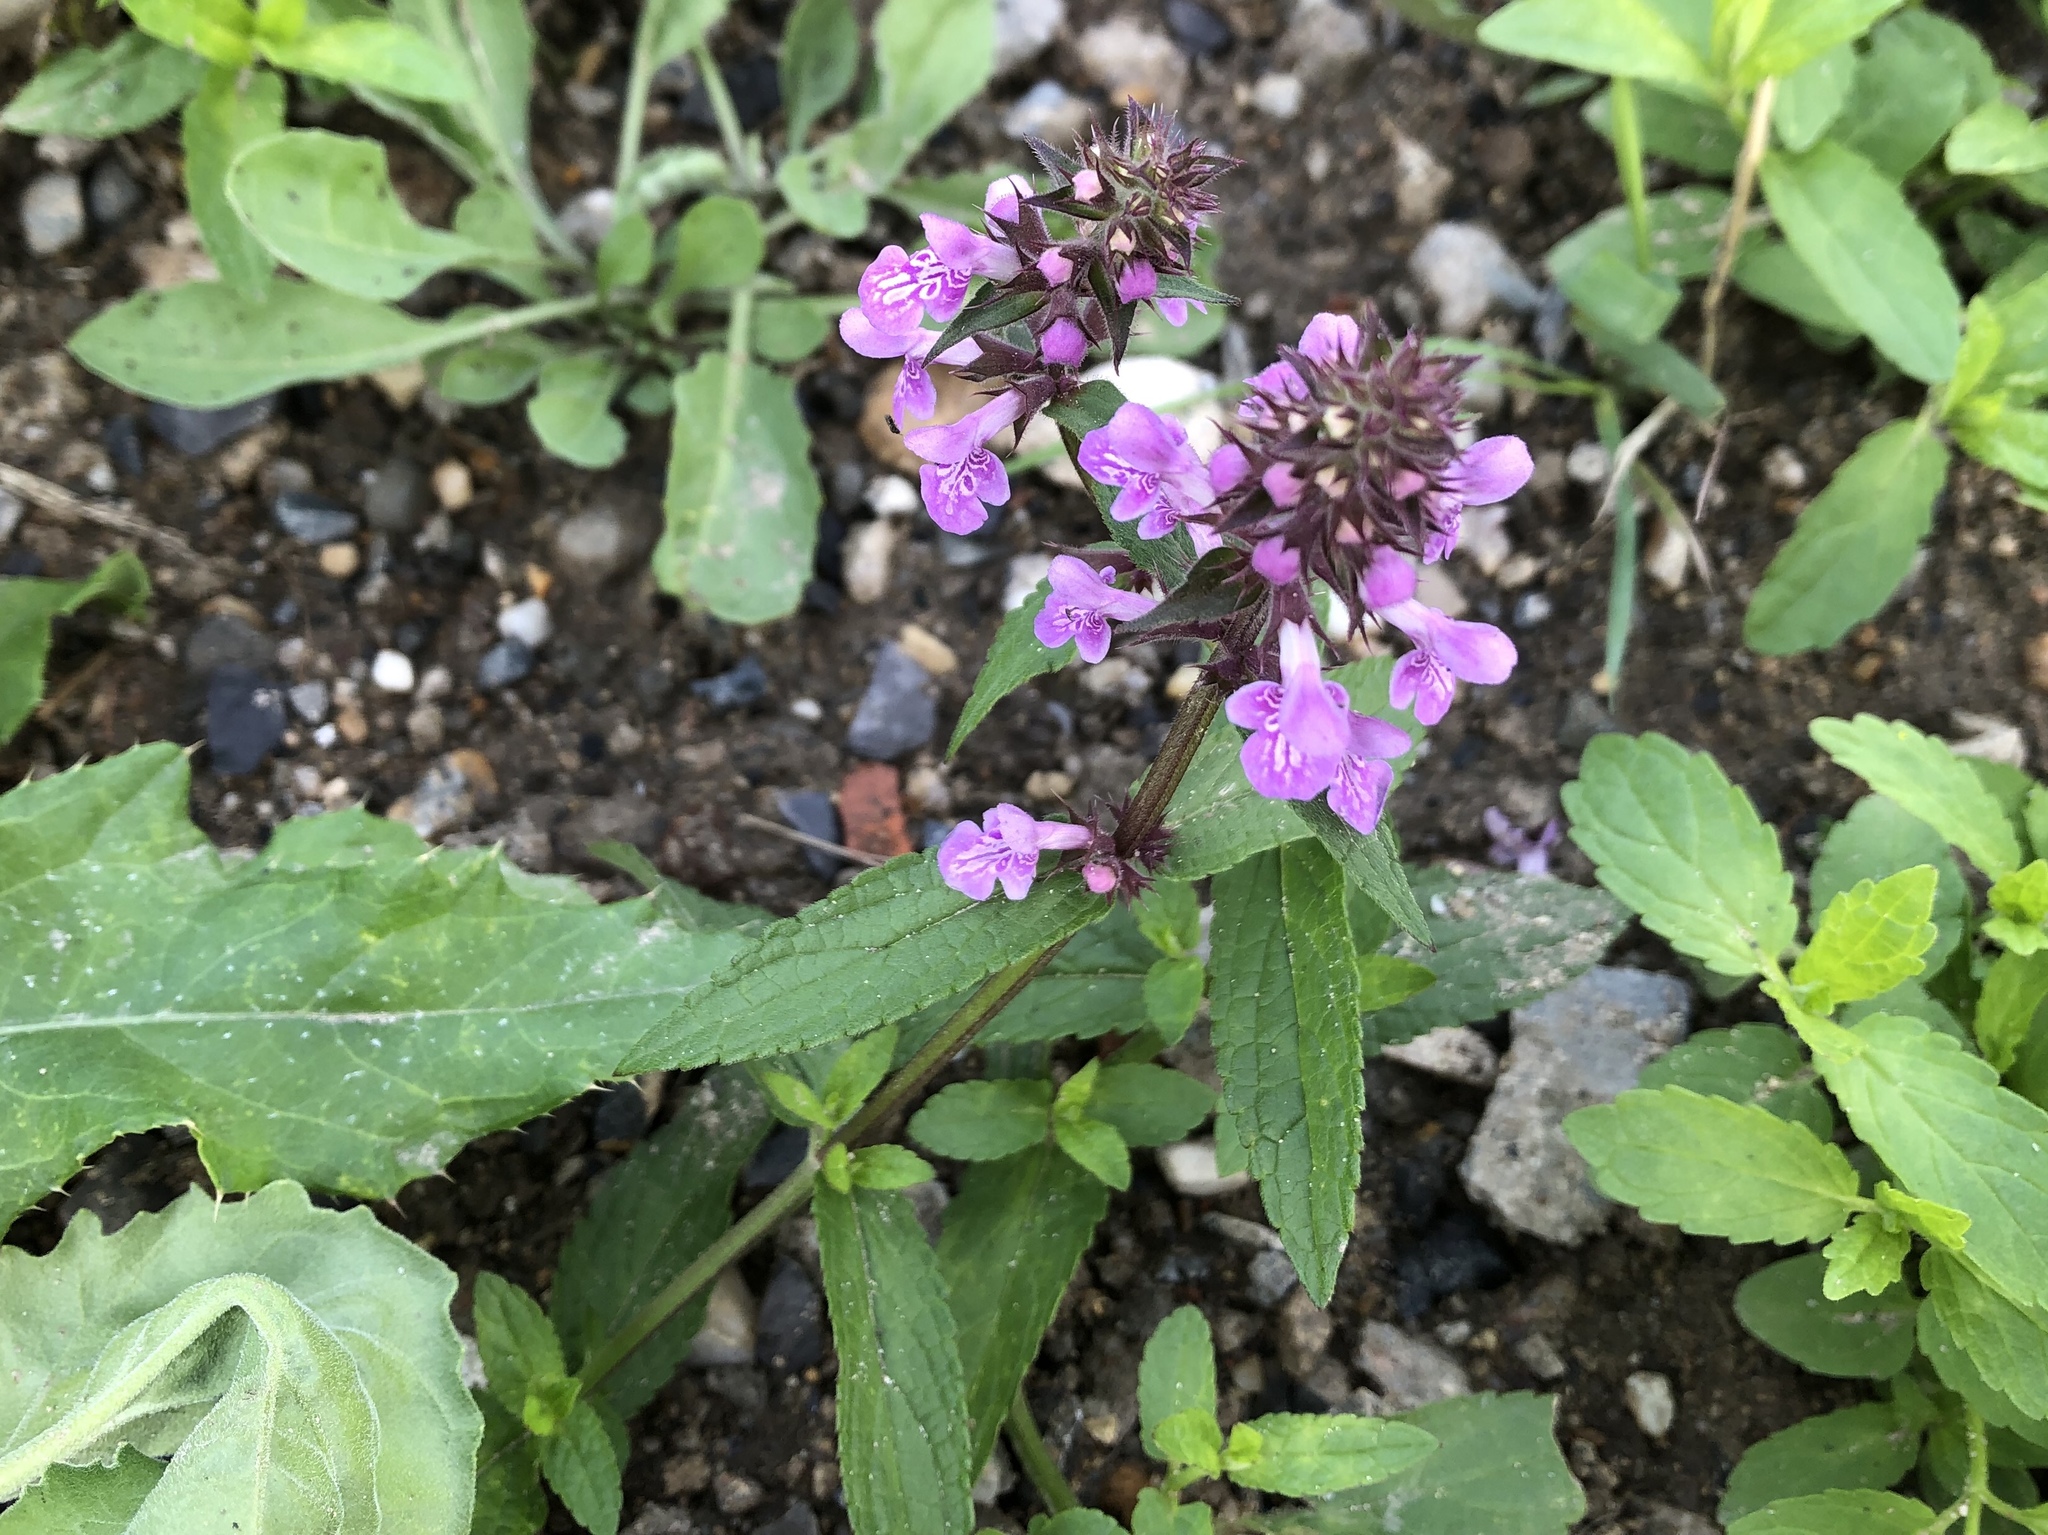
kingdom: Plantae
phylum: Tracheophyta
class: Magnoliopsida
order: Lamiales
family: Lamiaceae
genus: Stachys
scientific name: Stachys palustris
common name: Marsh woundwort
